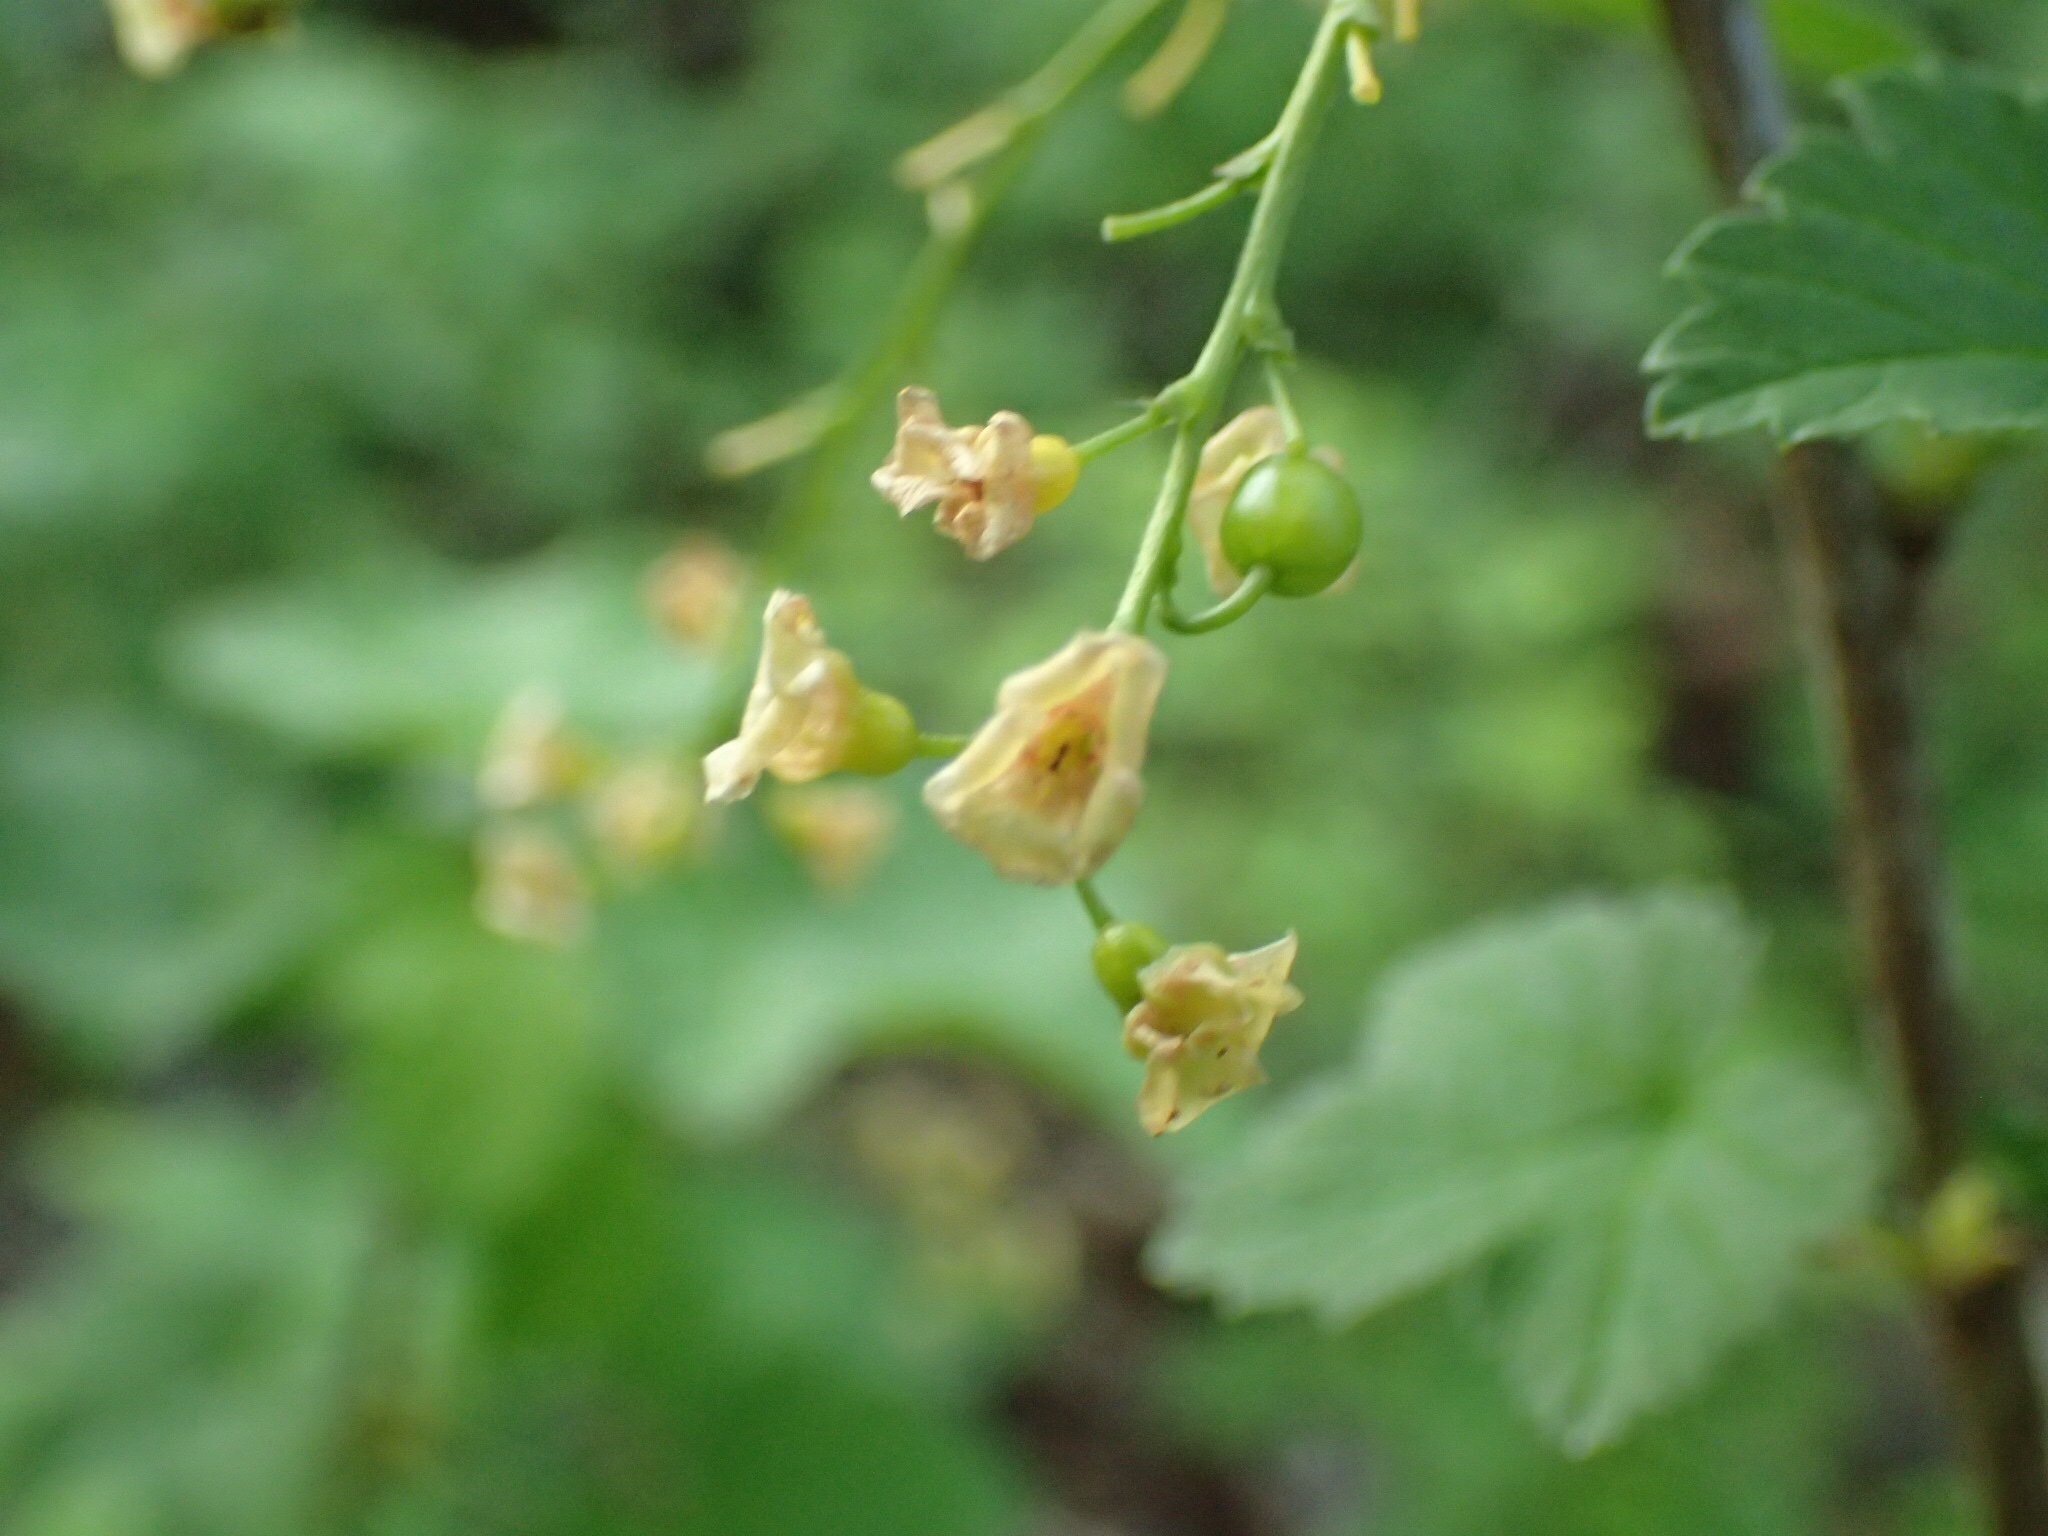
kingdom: Plantae
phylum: Tracheophyta
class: Magnoliopsida
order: Saxifragales
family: Grossulariaceae
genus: Ribes
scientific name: Ribes rubrum
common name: Red currant
